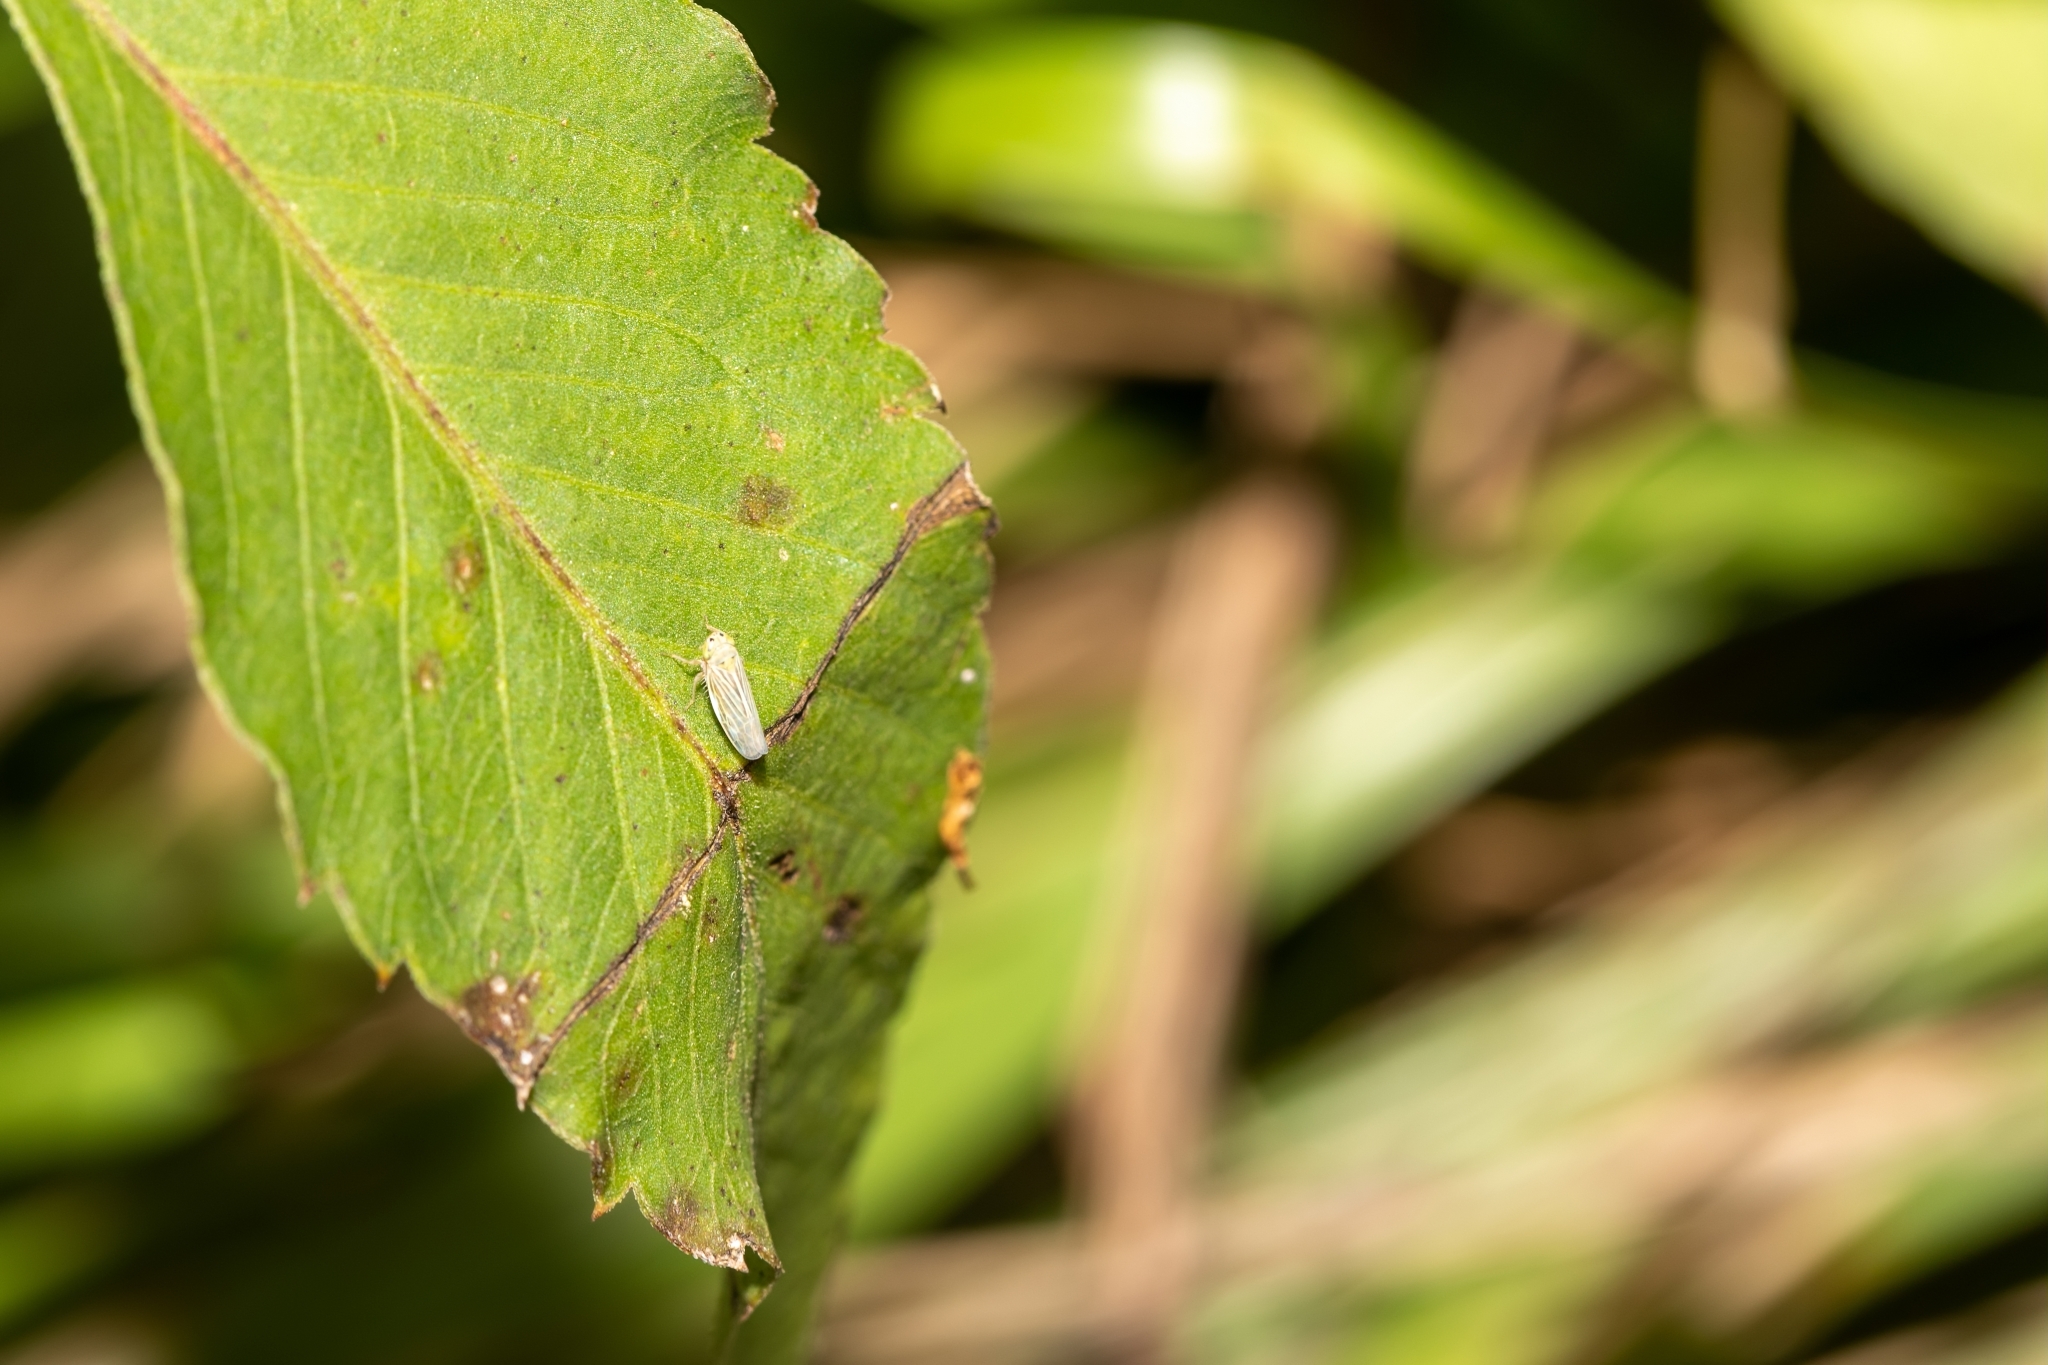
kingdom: Animalia
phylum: Arthropoda
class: Insecta
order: Hemiptera
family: Cicadellidae
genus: Graminella
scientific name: Graminella cognita
